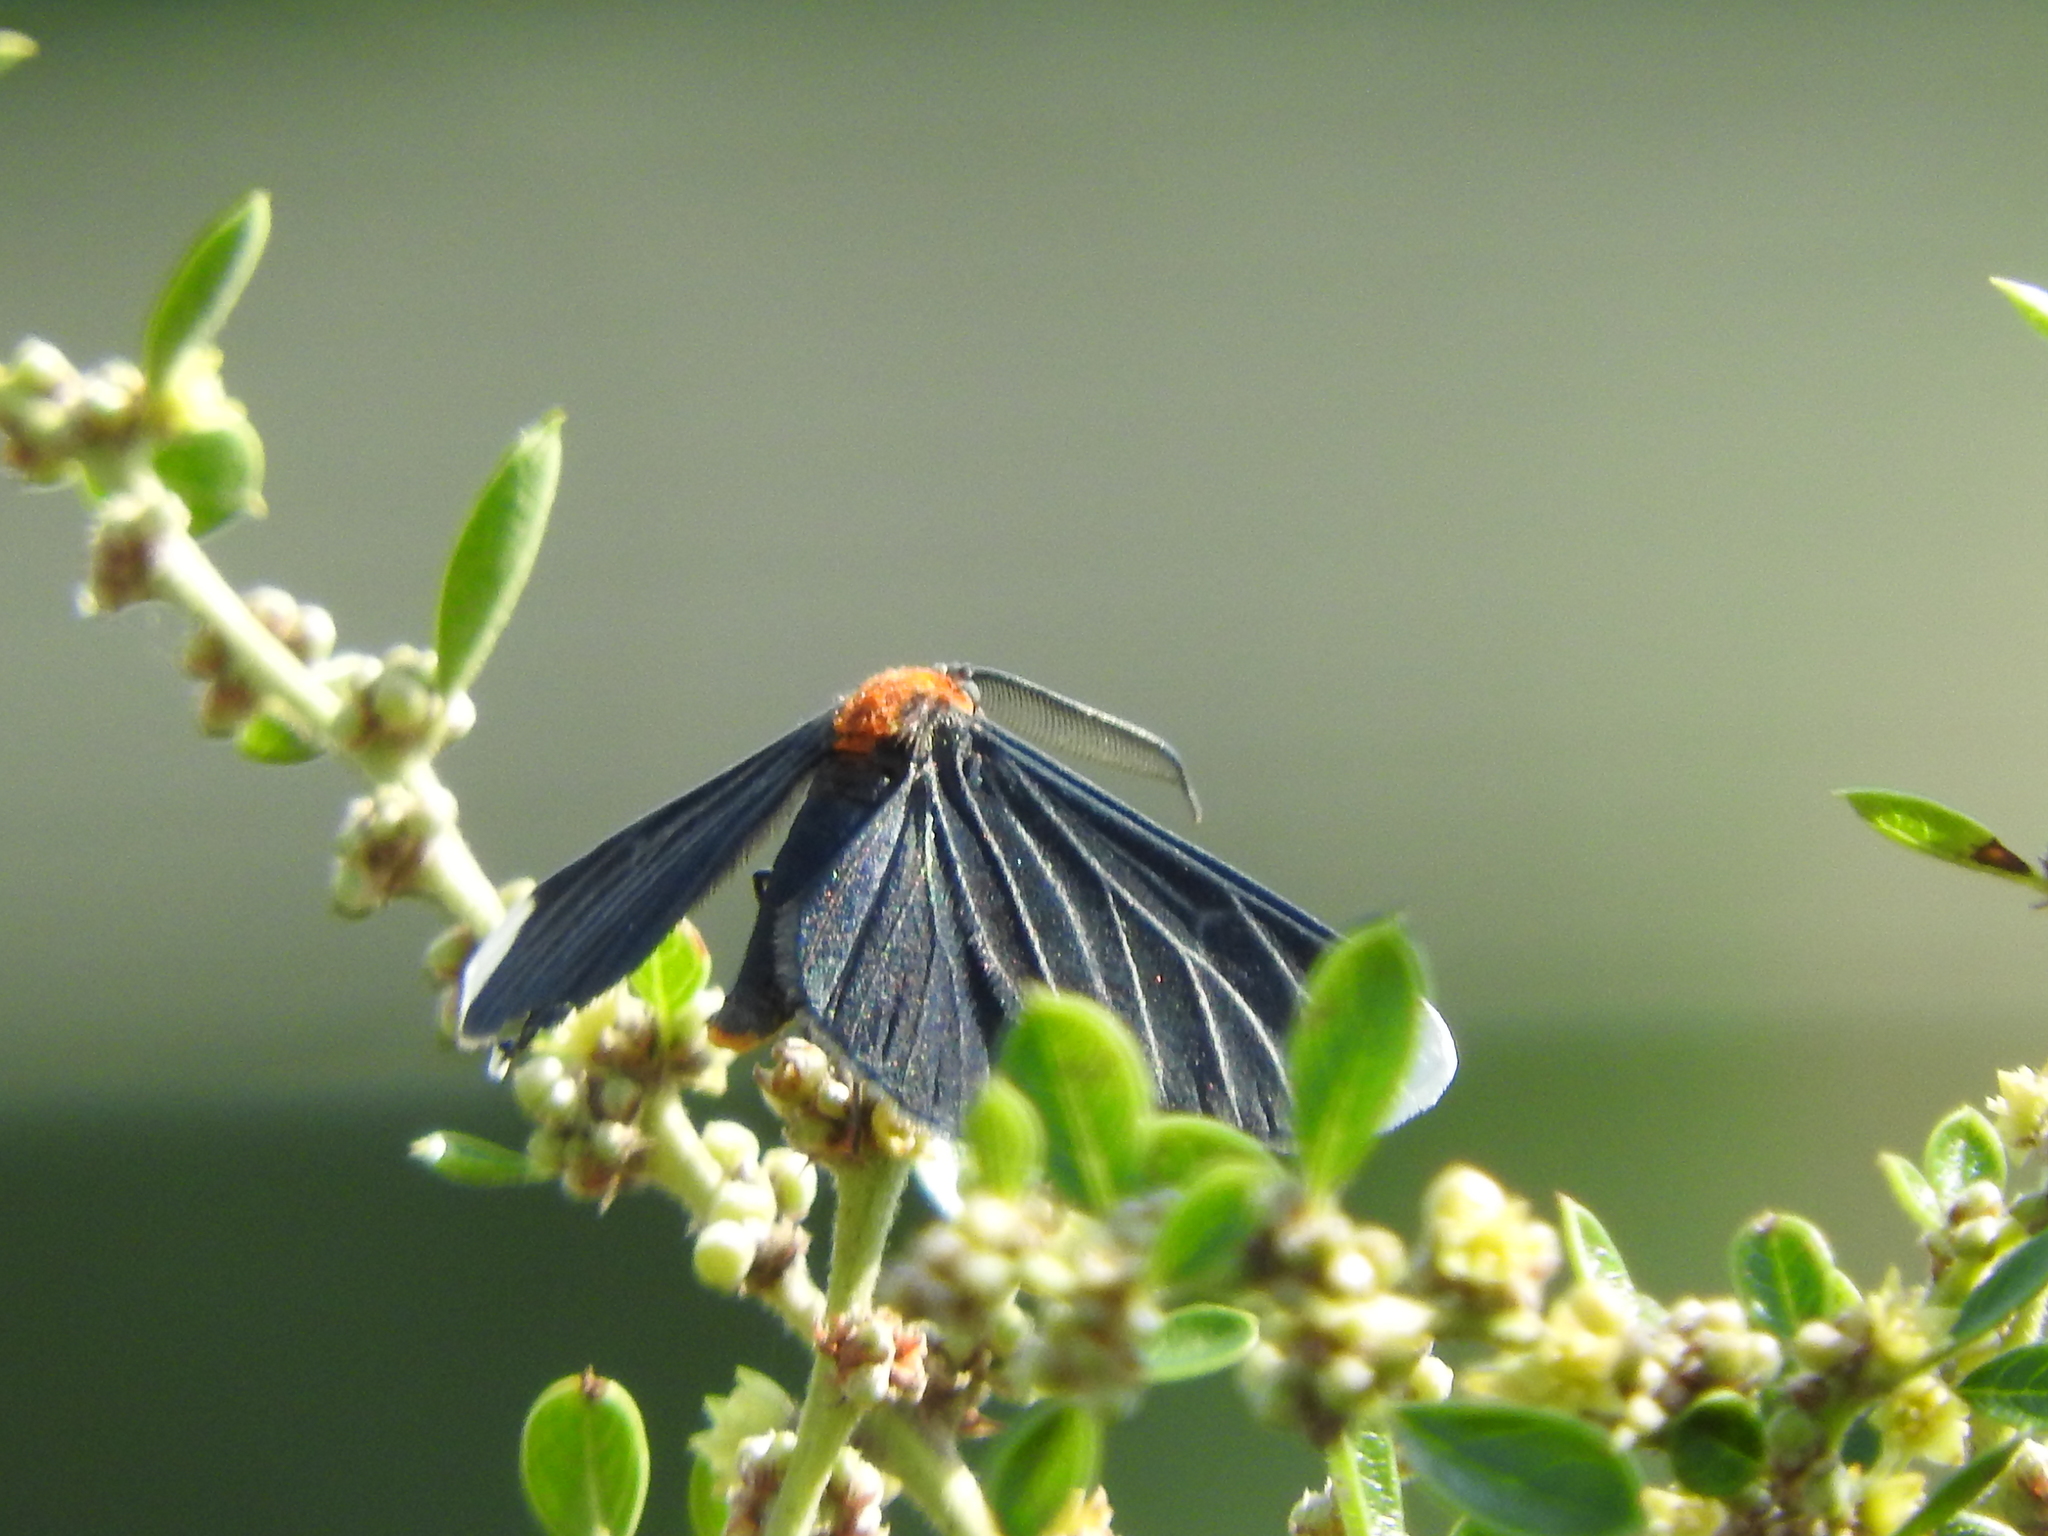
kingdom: Animalia
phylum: Arthropoda
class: Insecta
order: Lepidoptera
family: Geometridae
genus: Melanchroia
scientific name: Melanchroia chephise
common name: White-tipped black
